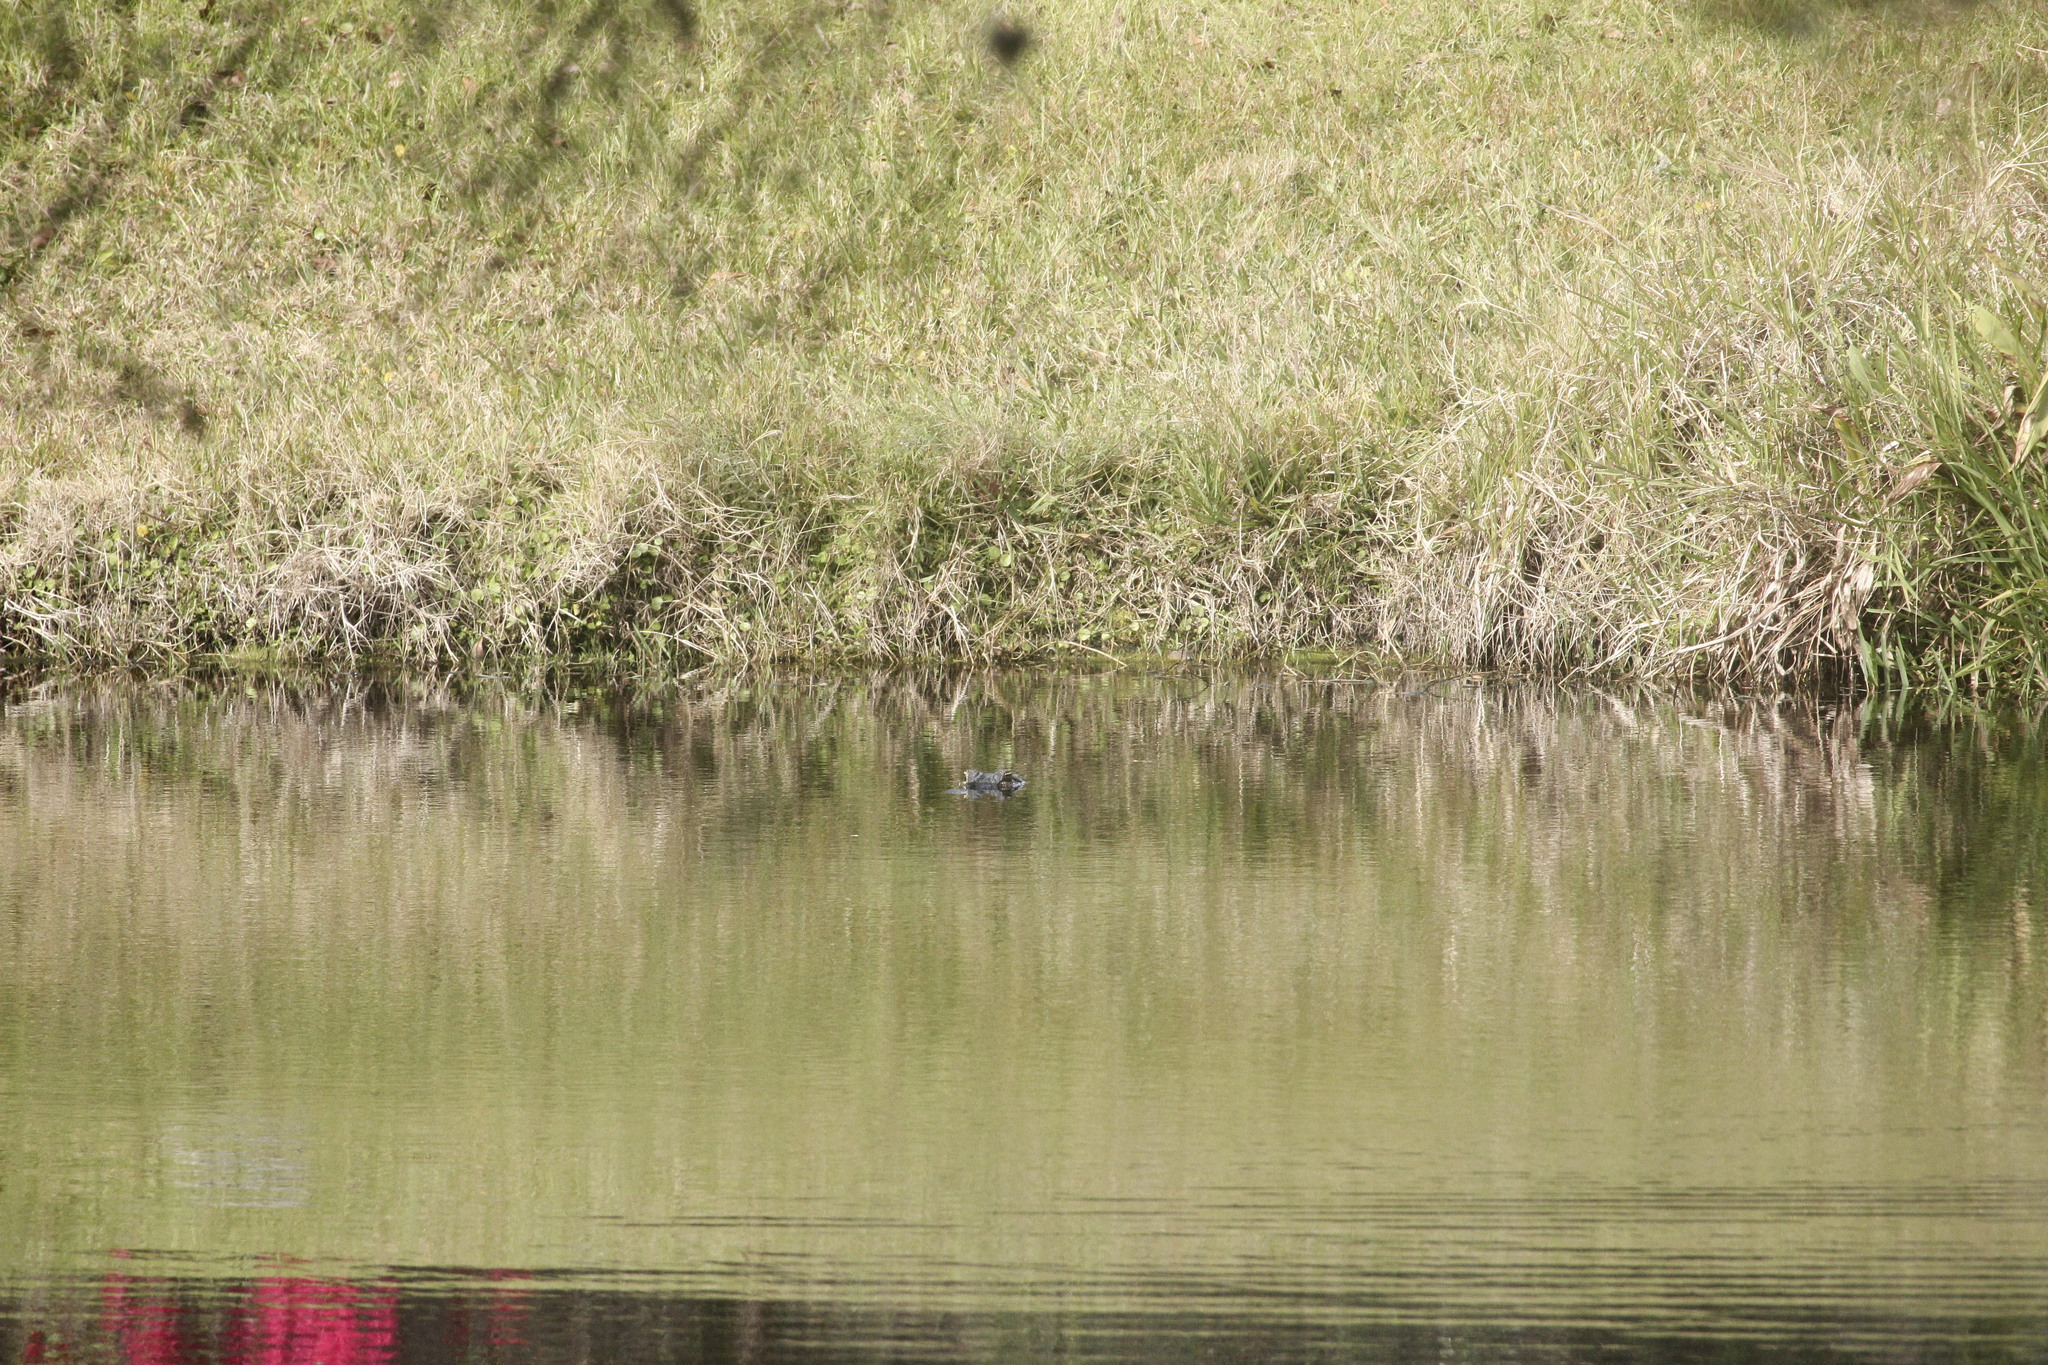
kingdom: Animalia
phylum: Chordata
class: Crocodylia
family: Alligatoridae
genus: Alligator
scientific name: Alligator mississippiensis
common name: American alligator
